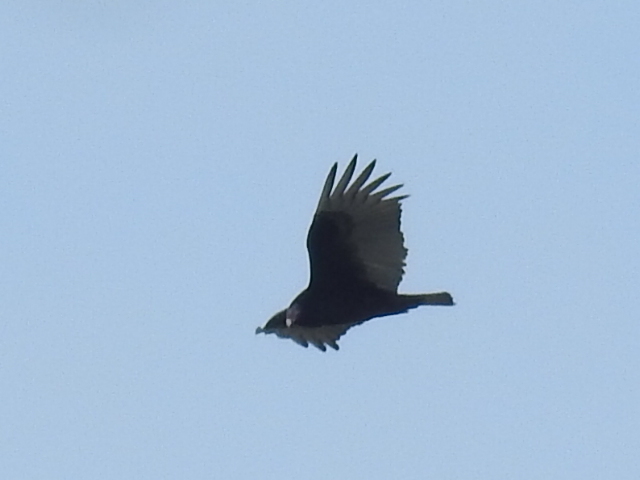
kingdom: Animalia
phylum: Chordata
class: Aves
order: Accipitriformes
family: Cathartidae
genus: Cathartes
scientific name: Cathartes aura
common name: Turkey vulture
